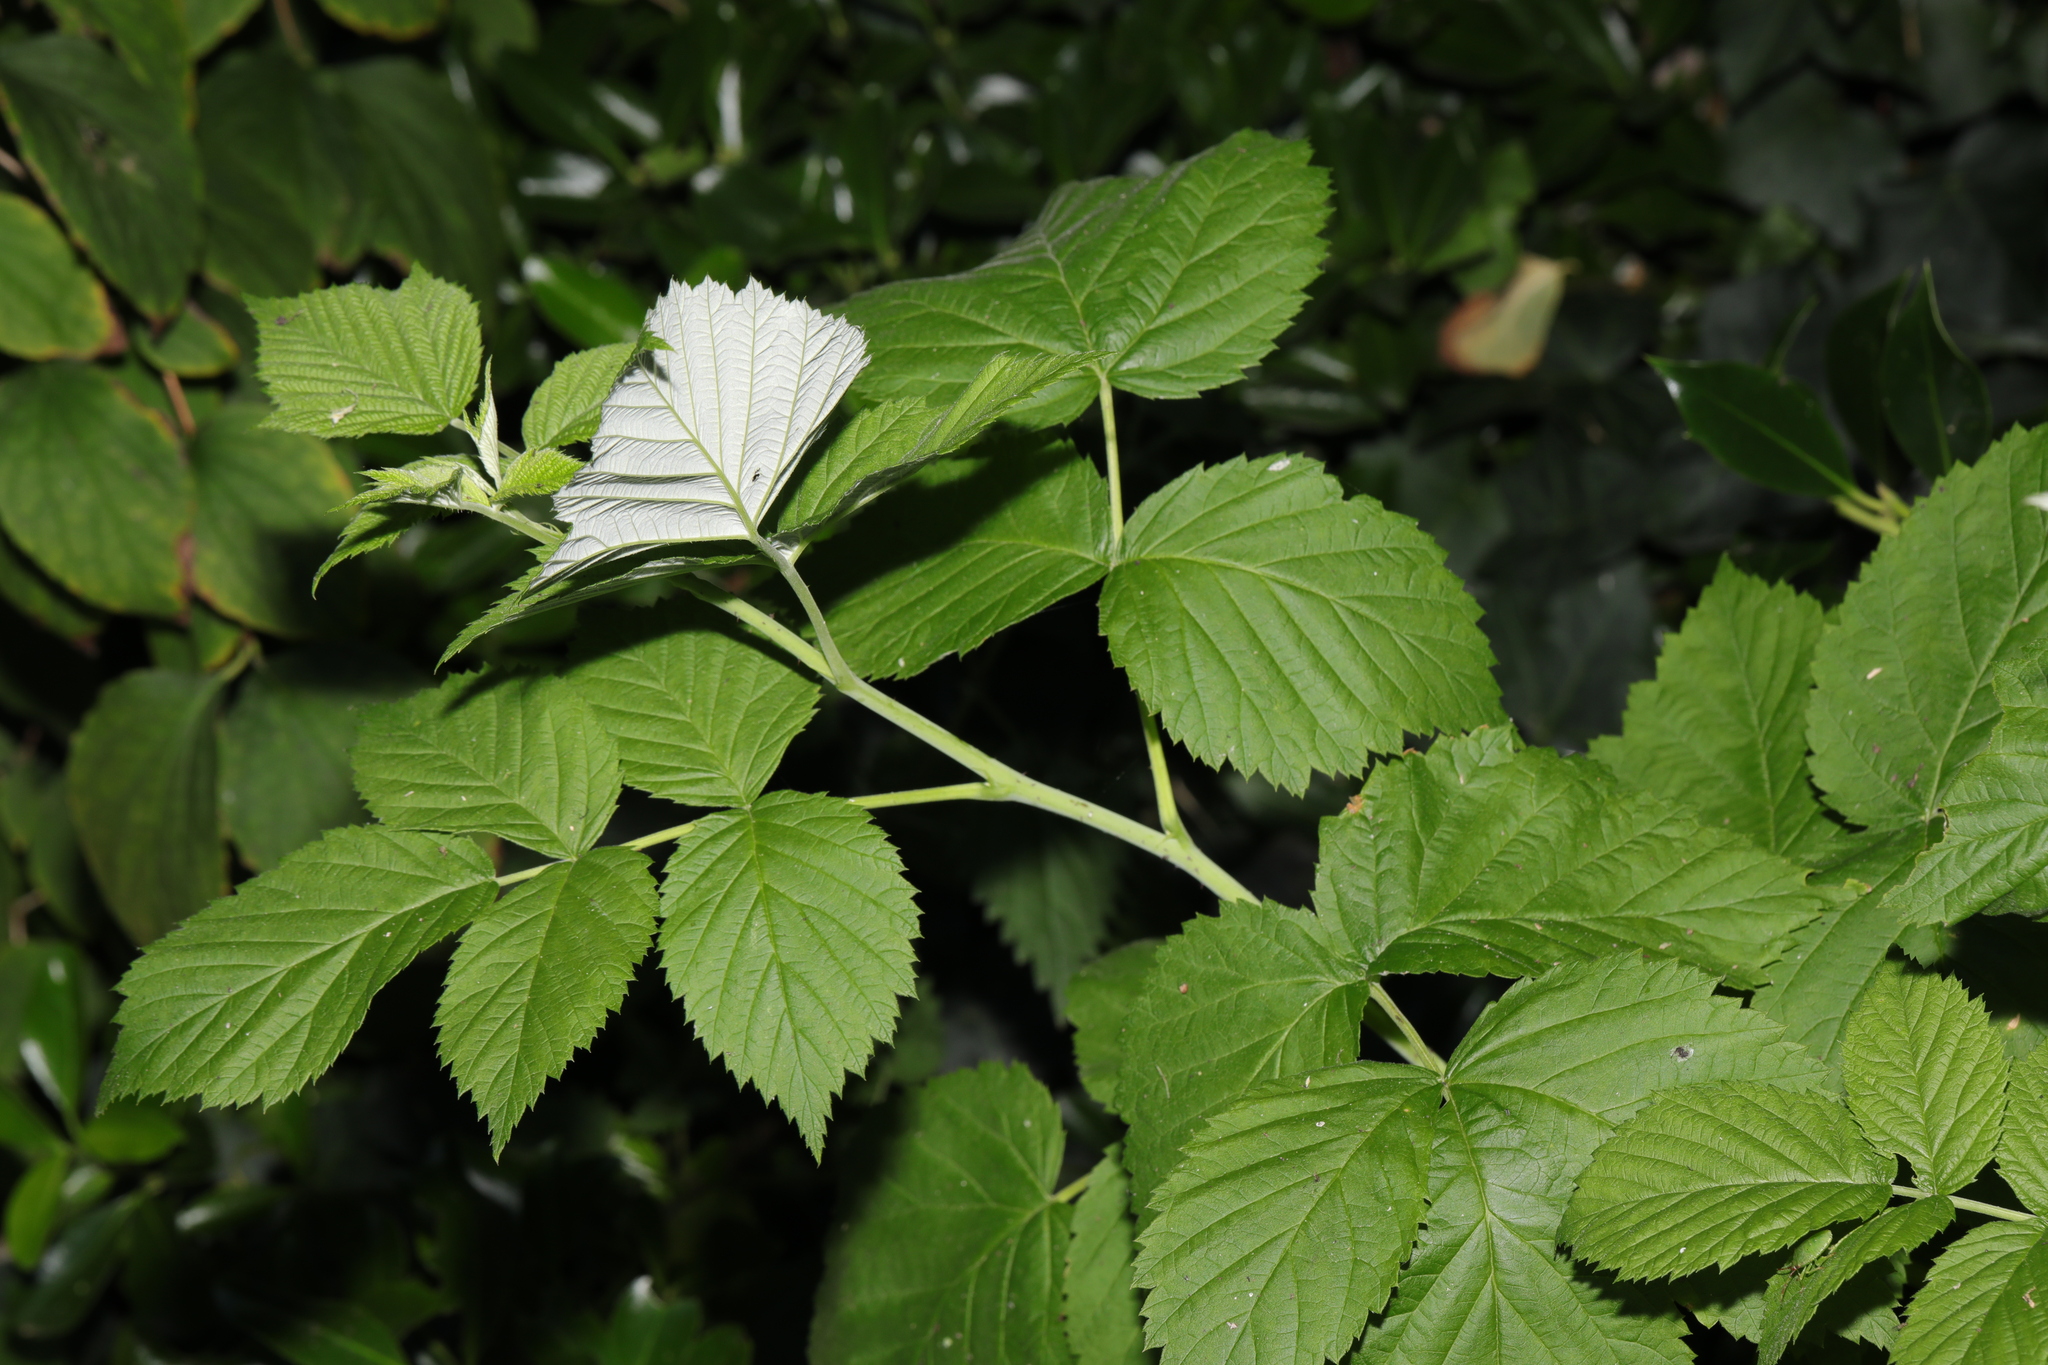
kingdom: Plantae
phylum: Tracheophyta
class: Magnoliopsida
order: Rosales
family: Rosaceae
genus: Rubus
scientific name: Rubus idaeus
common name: Raspberry
